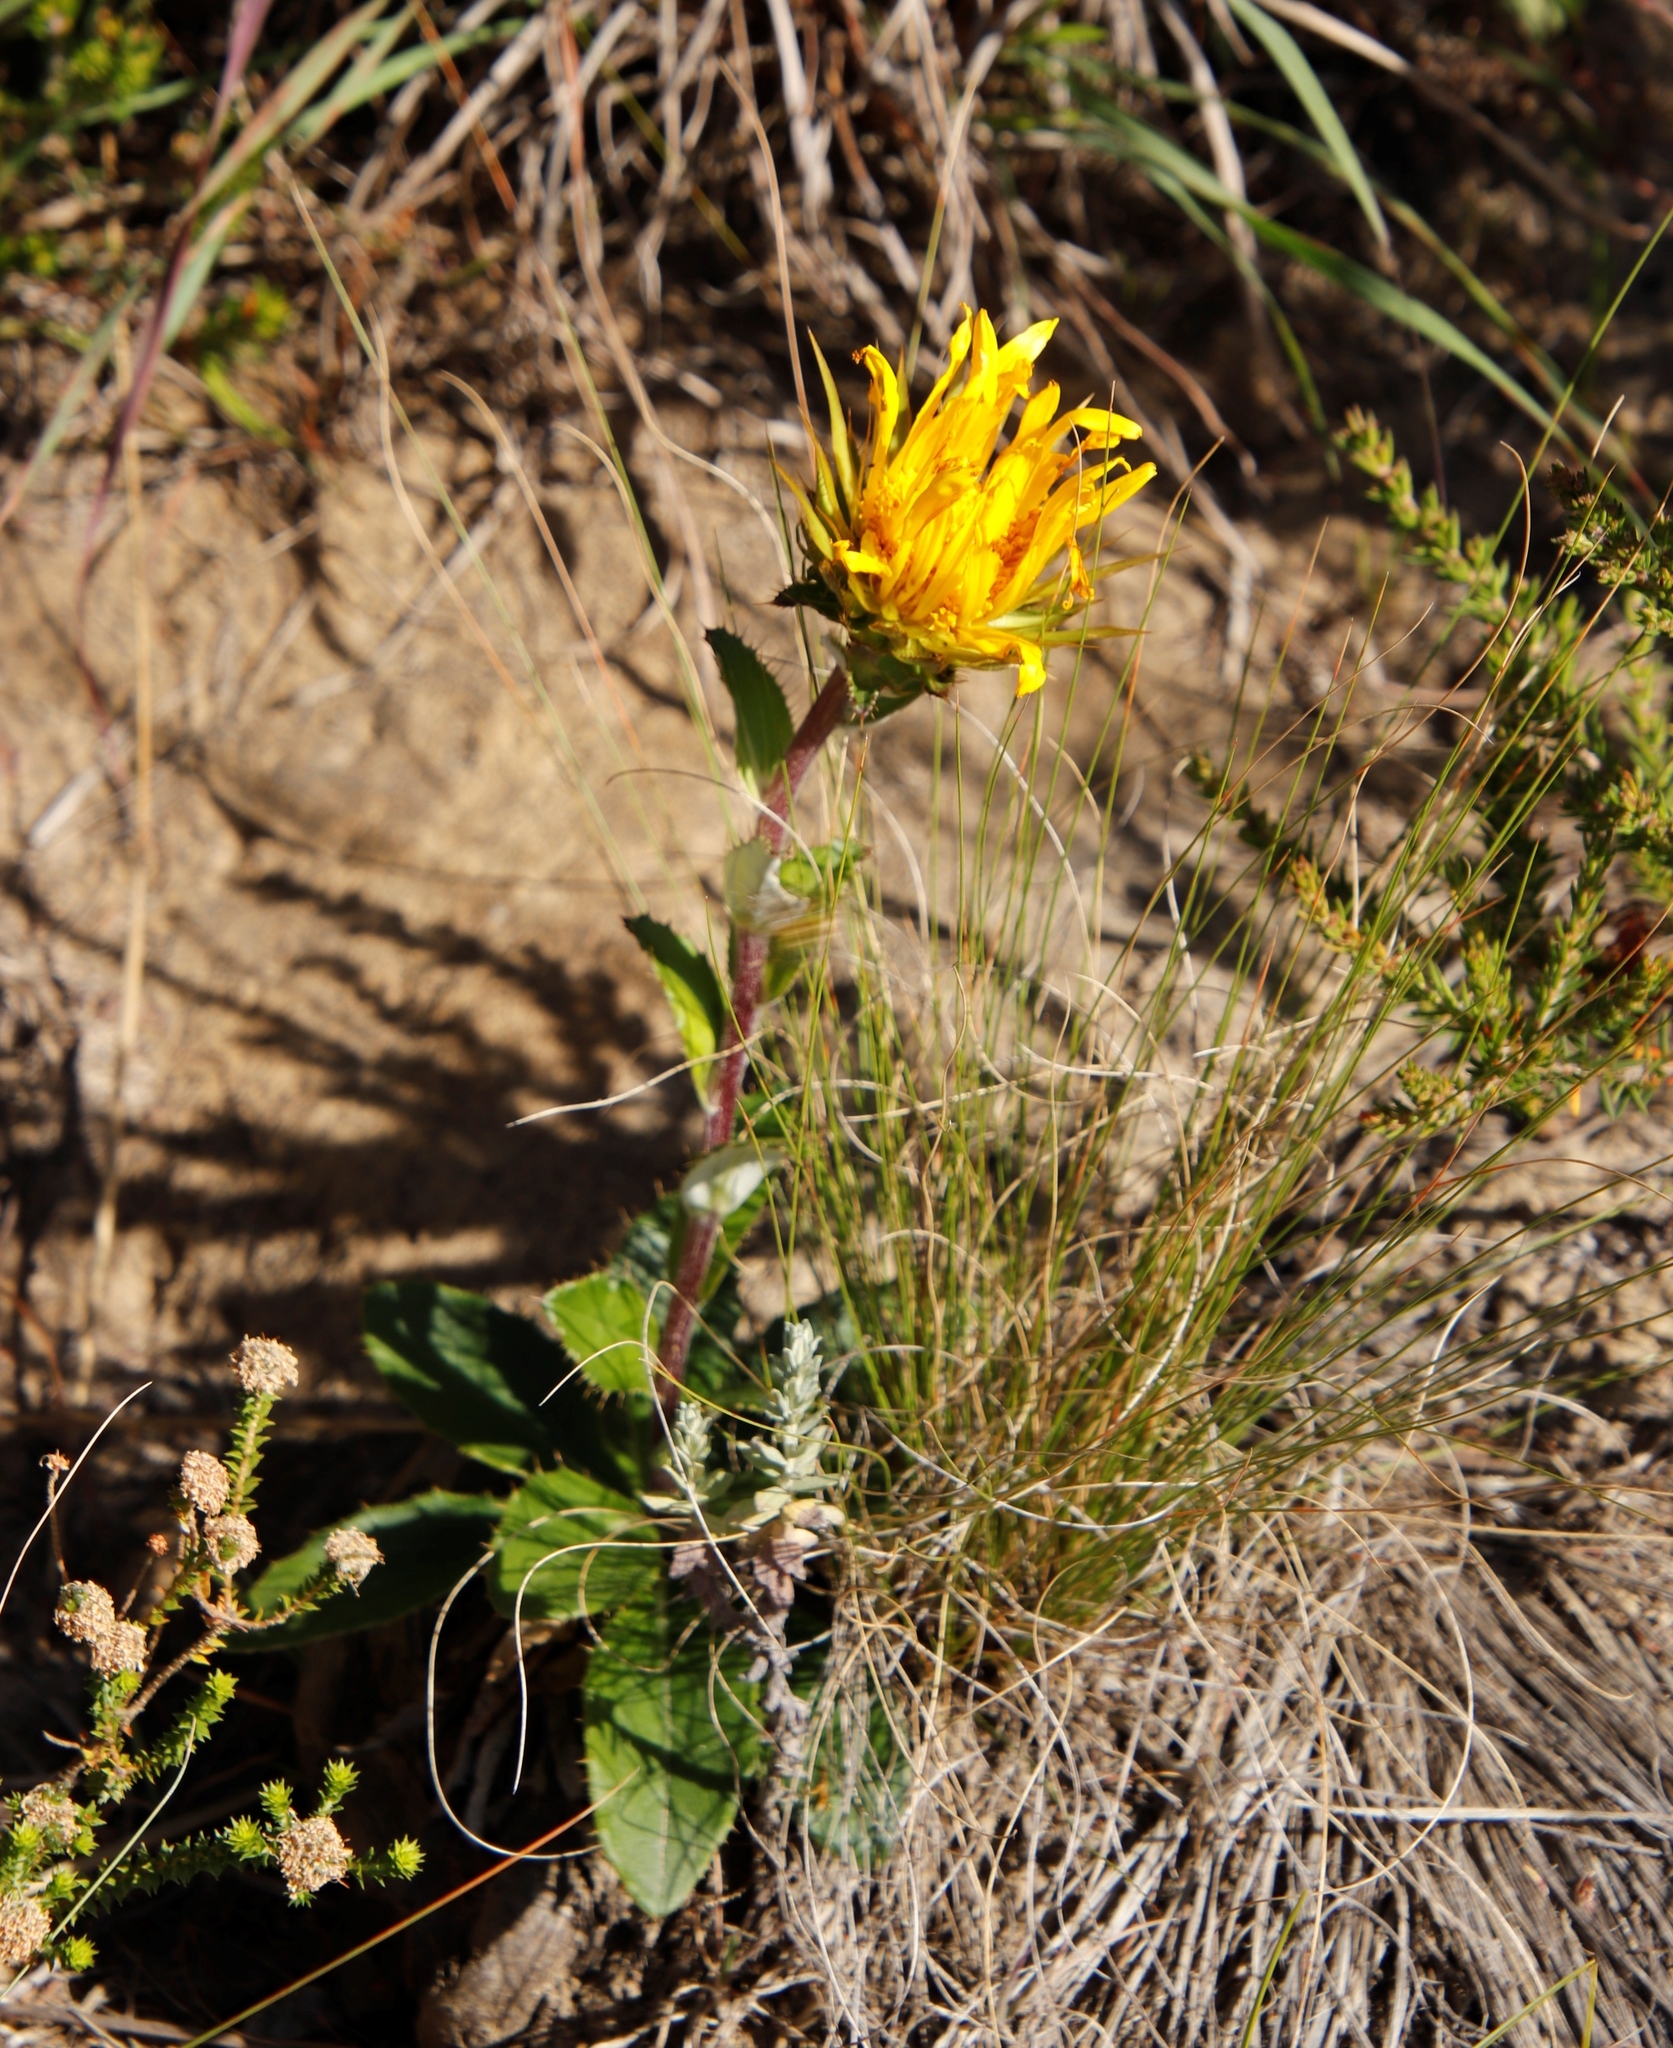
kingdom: Plantae
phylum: Tracheophyta
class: Magnoliopsida
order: Asterales
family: Asteraceae
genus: Berkheya
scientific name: Berkheya armata
